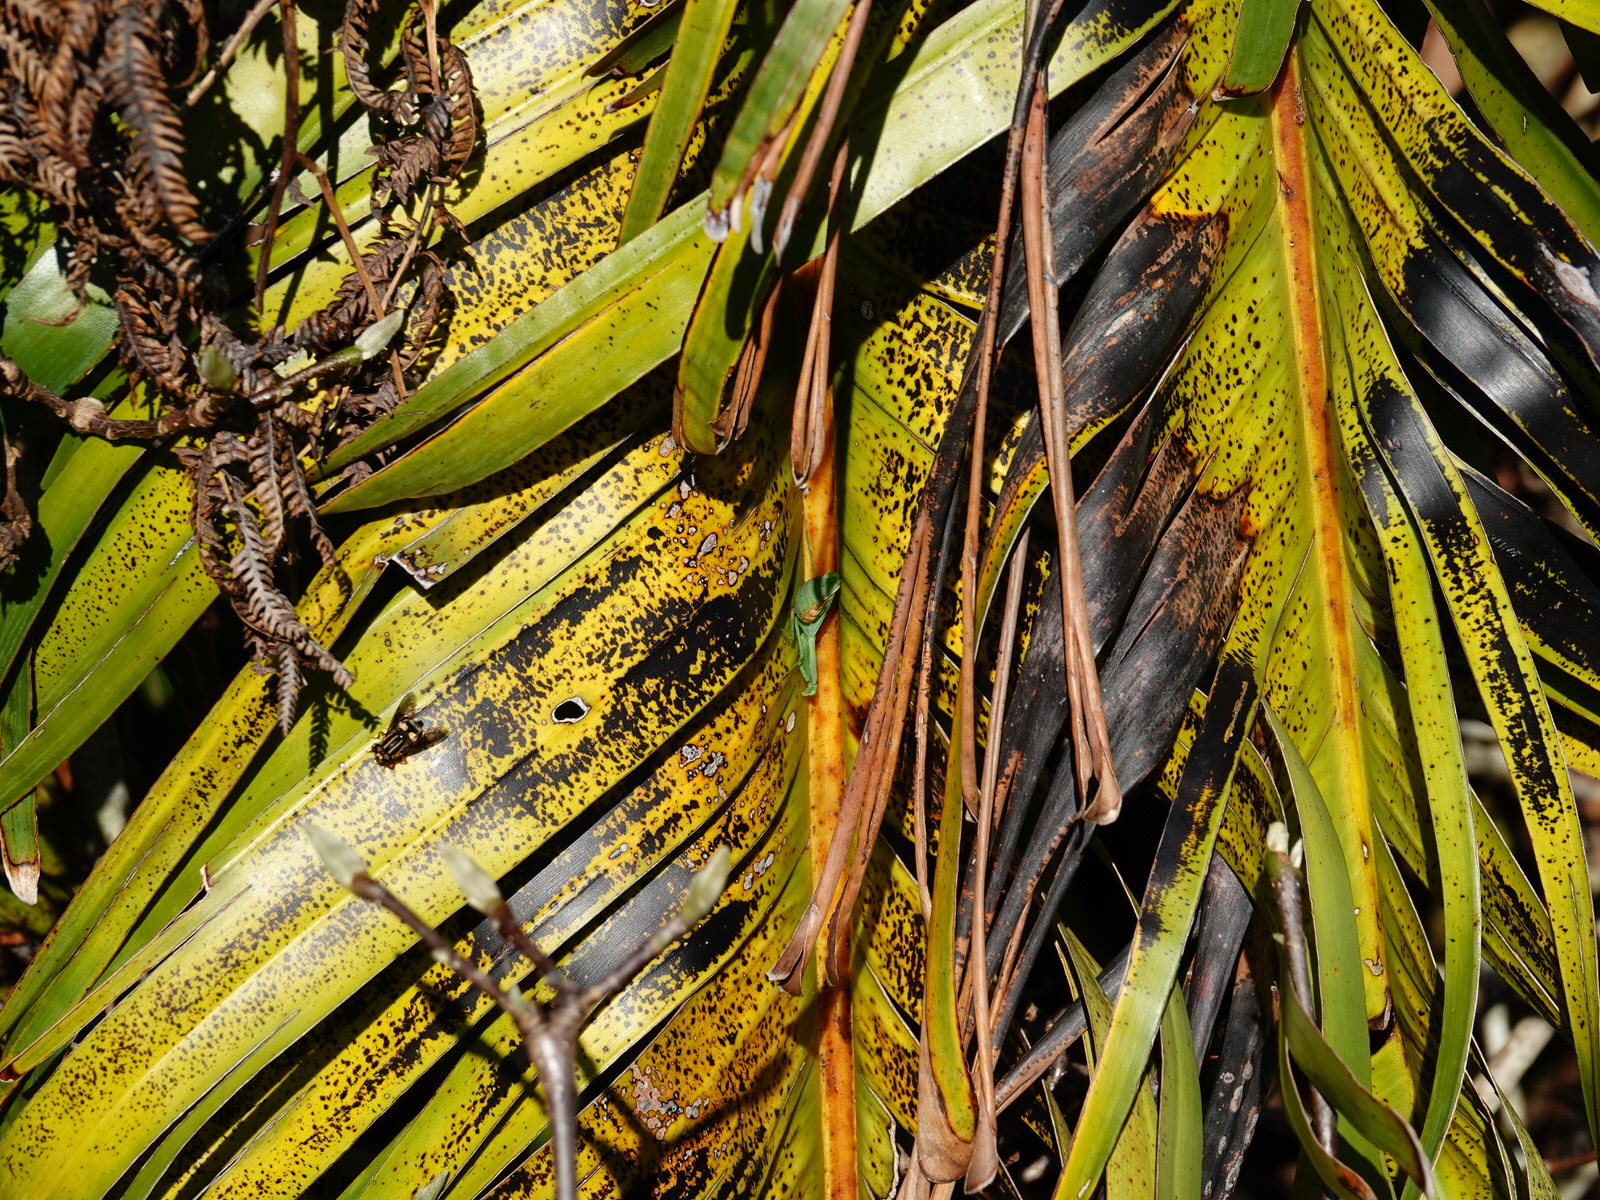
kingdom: Animalia
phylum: Arthropoda
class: Insecta
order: Mantodea
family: Miomantidae
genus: Miomantis
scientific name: Miomantis caffra
